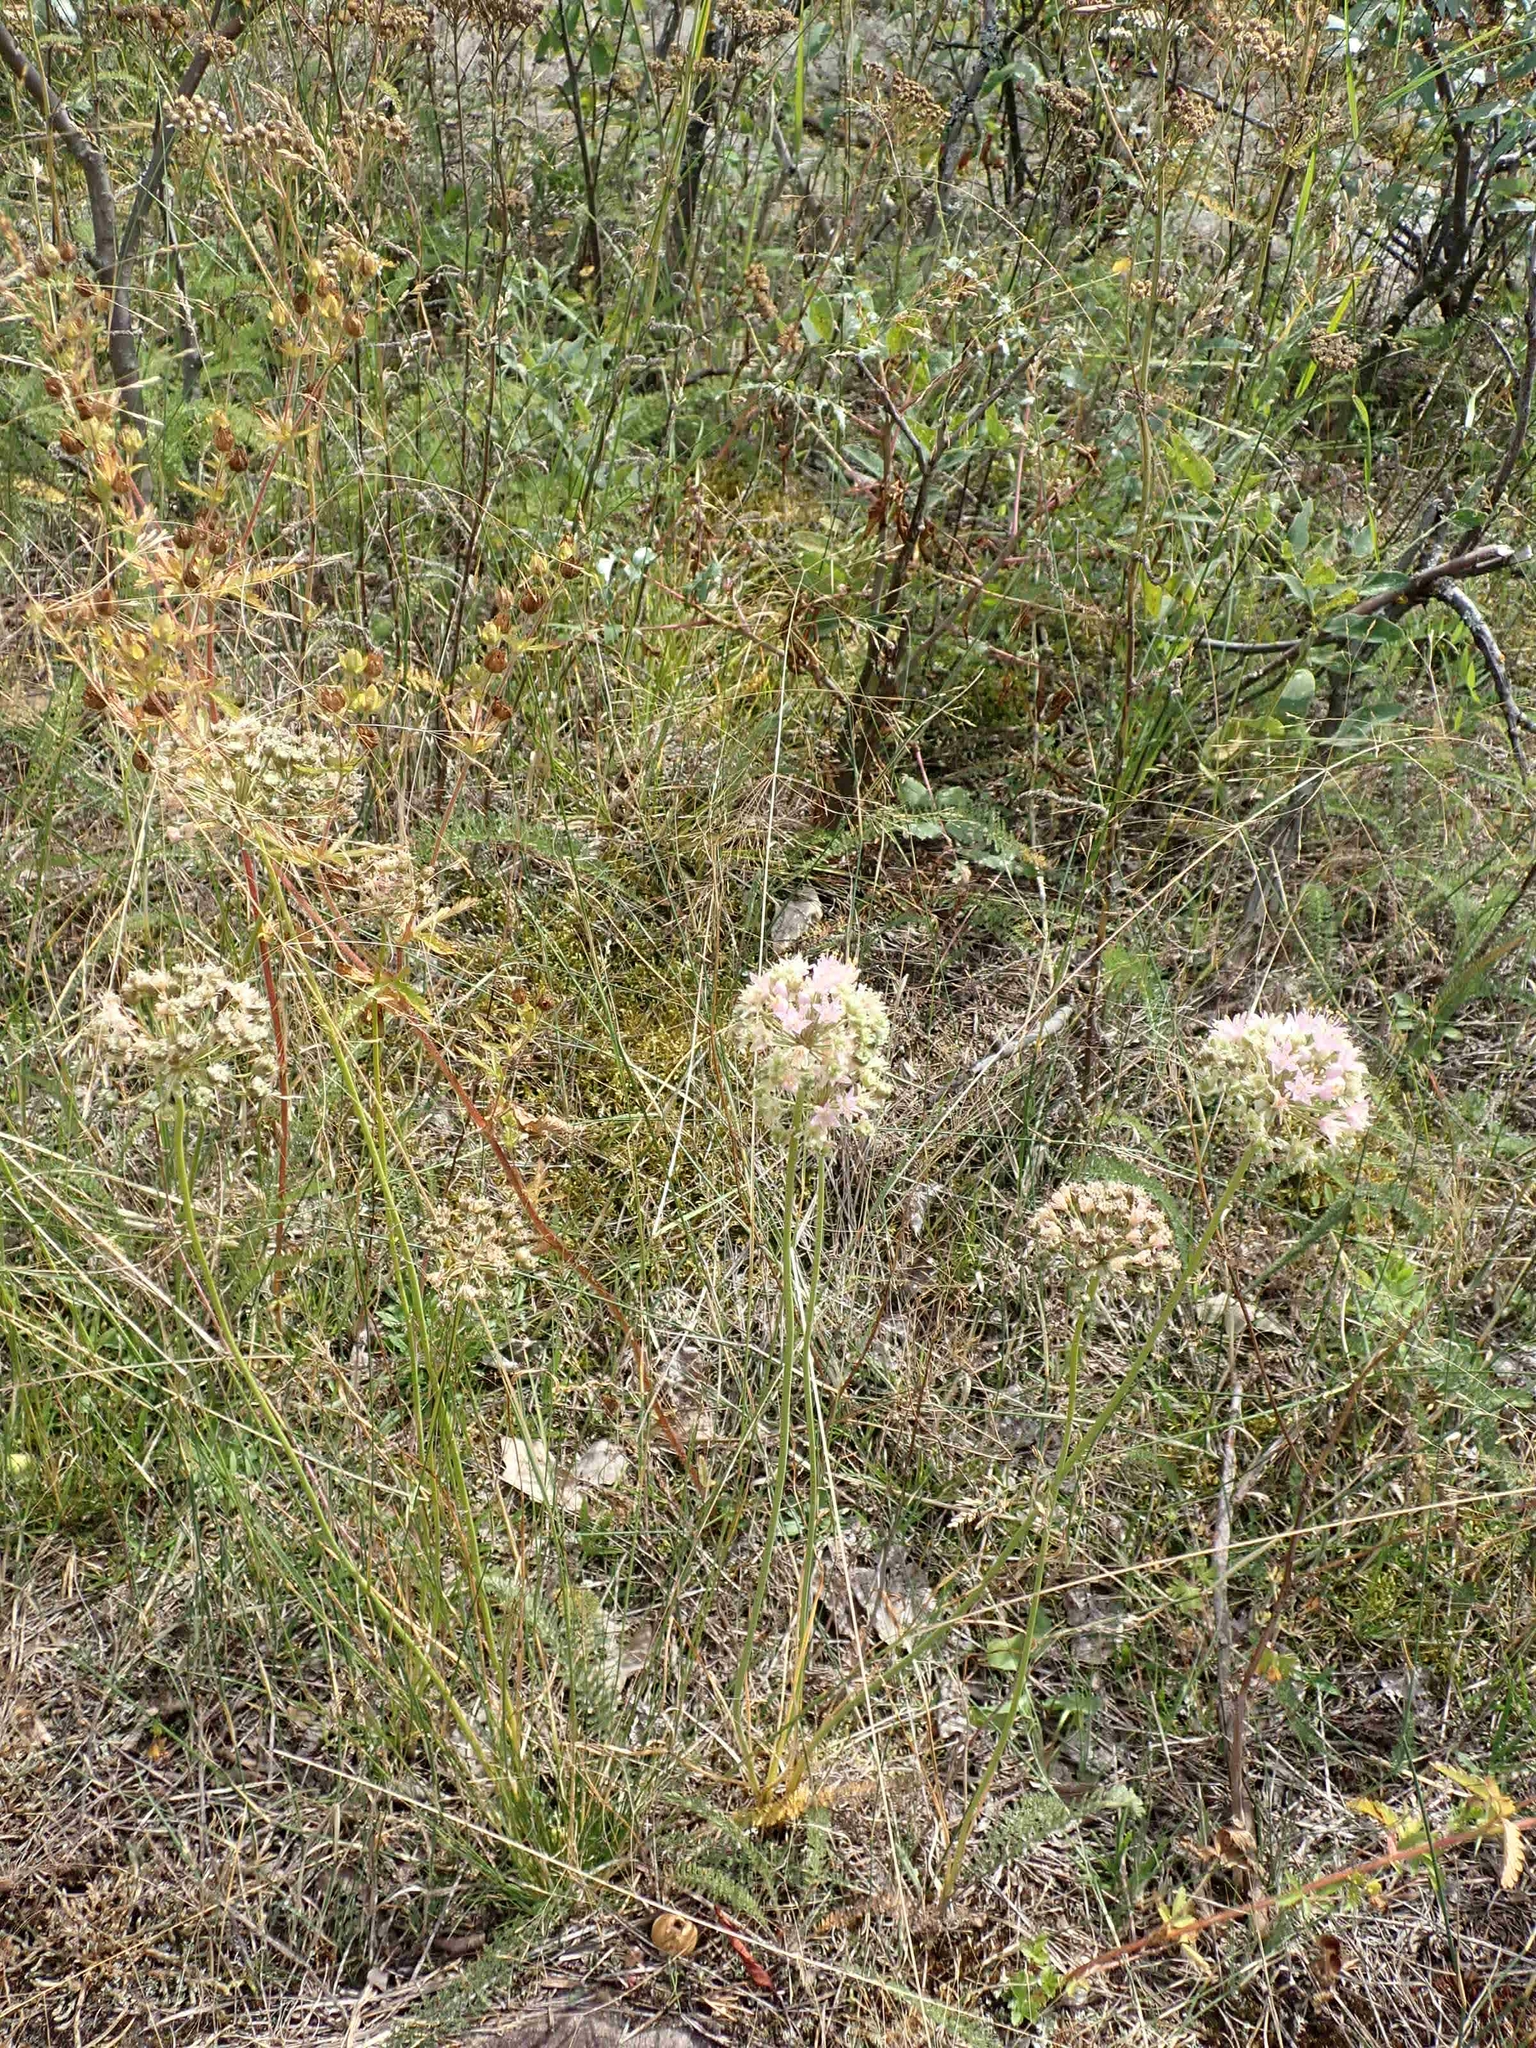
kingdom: Plantae
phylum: Tracheophyta
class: Liliopsida
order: Asparagales
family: Amaryllidaceae
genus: Allium
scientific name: Allium stellatum
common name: Autumn onion
